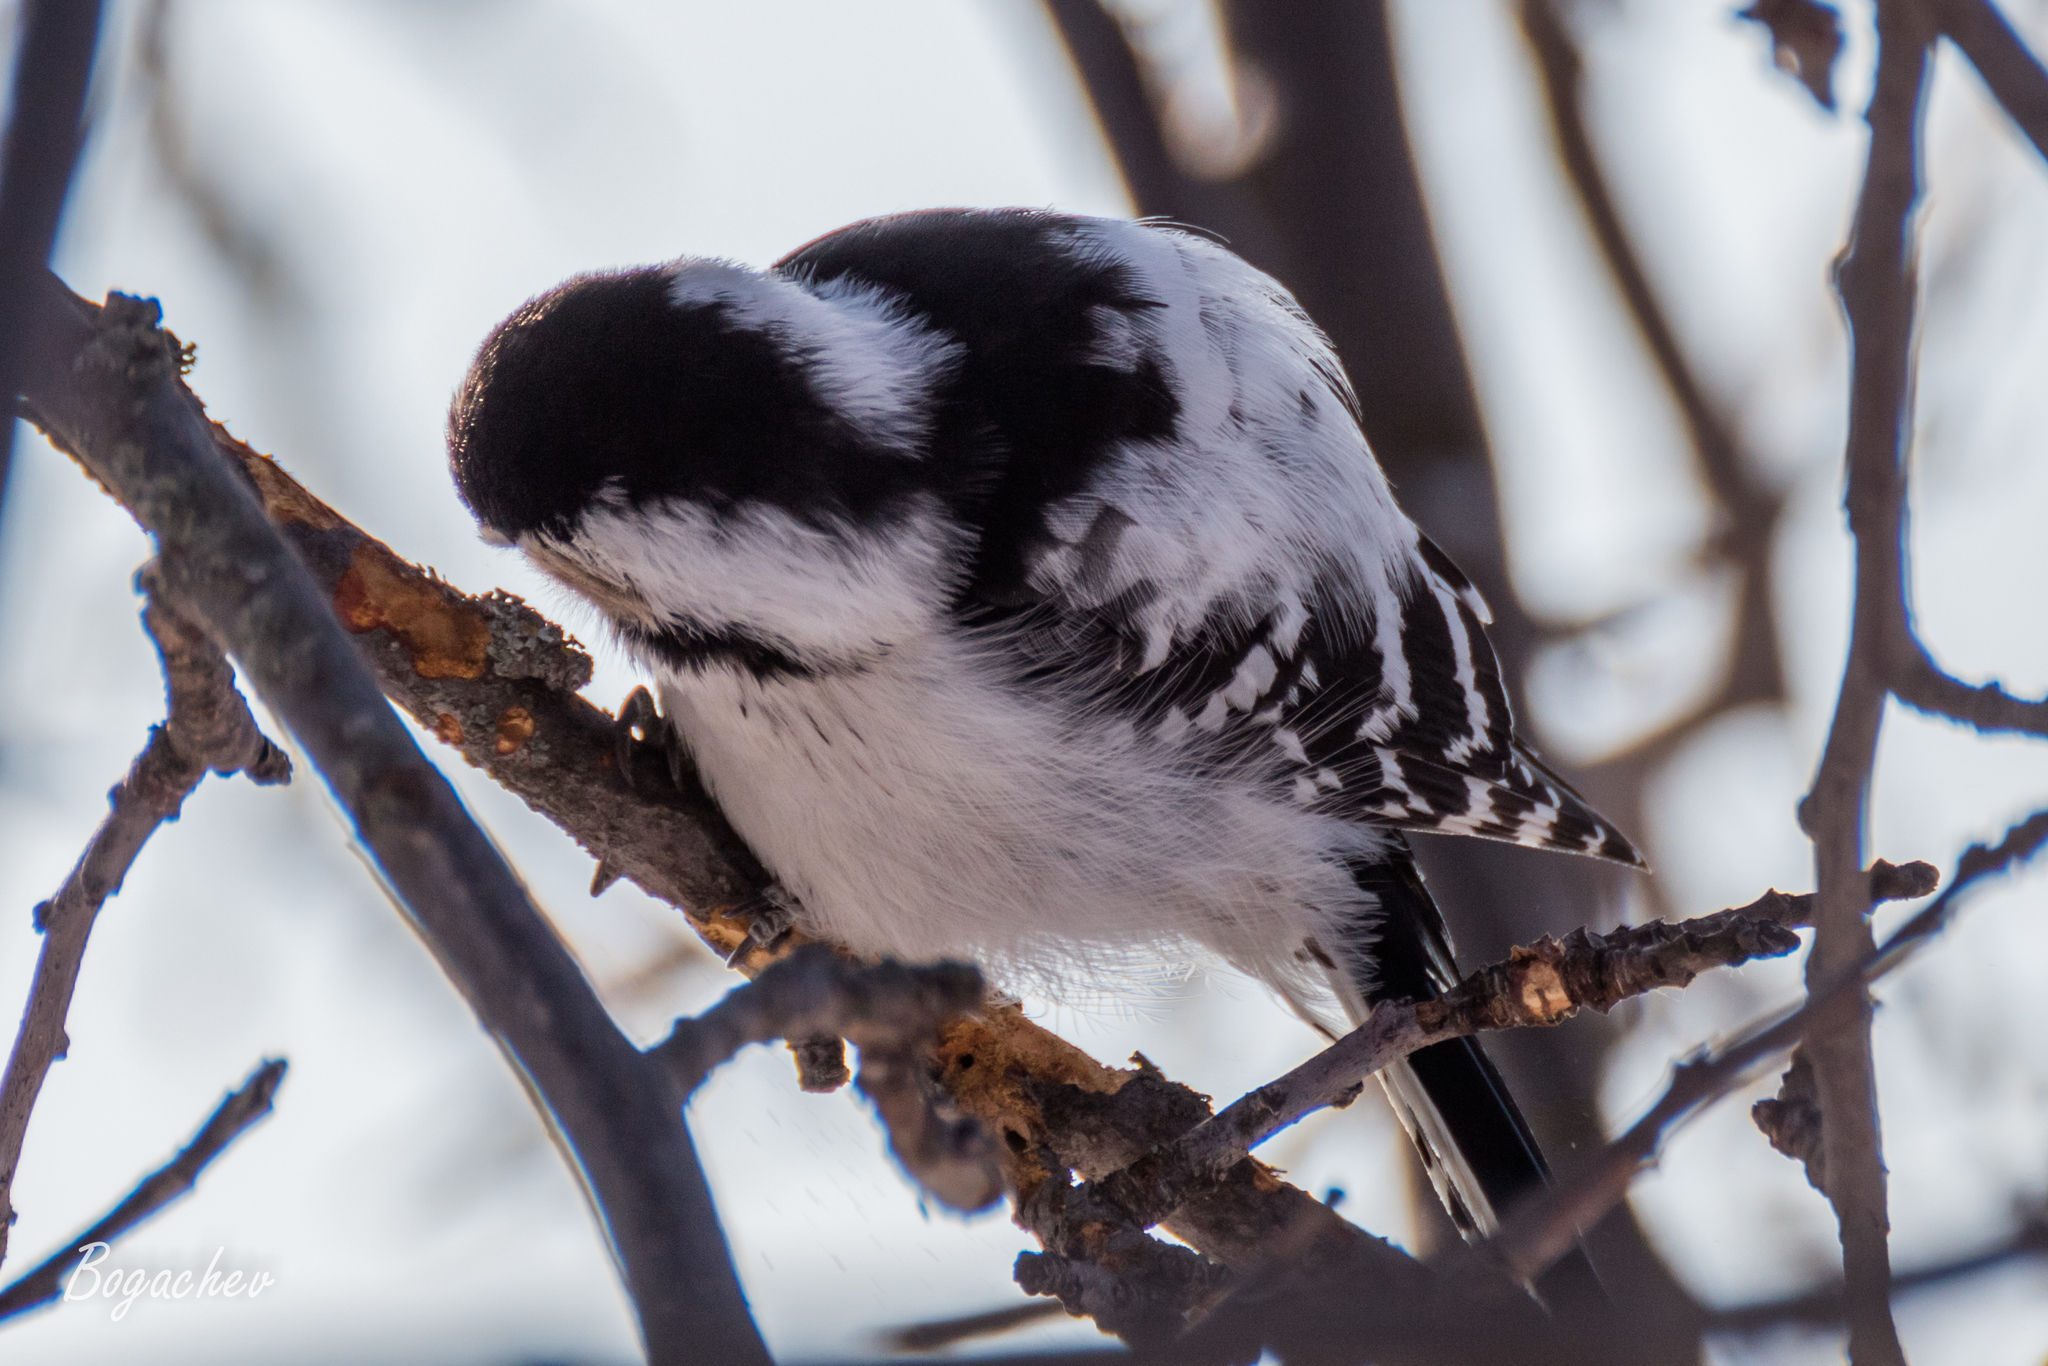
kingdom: Animalia
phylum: Chordata
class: Aves
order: Piciformes
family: Picidae
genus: Dryobates
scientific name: Dryobates minor
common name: Lesser spotted woodpecker
